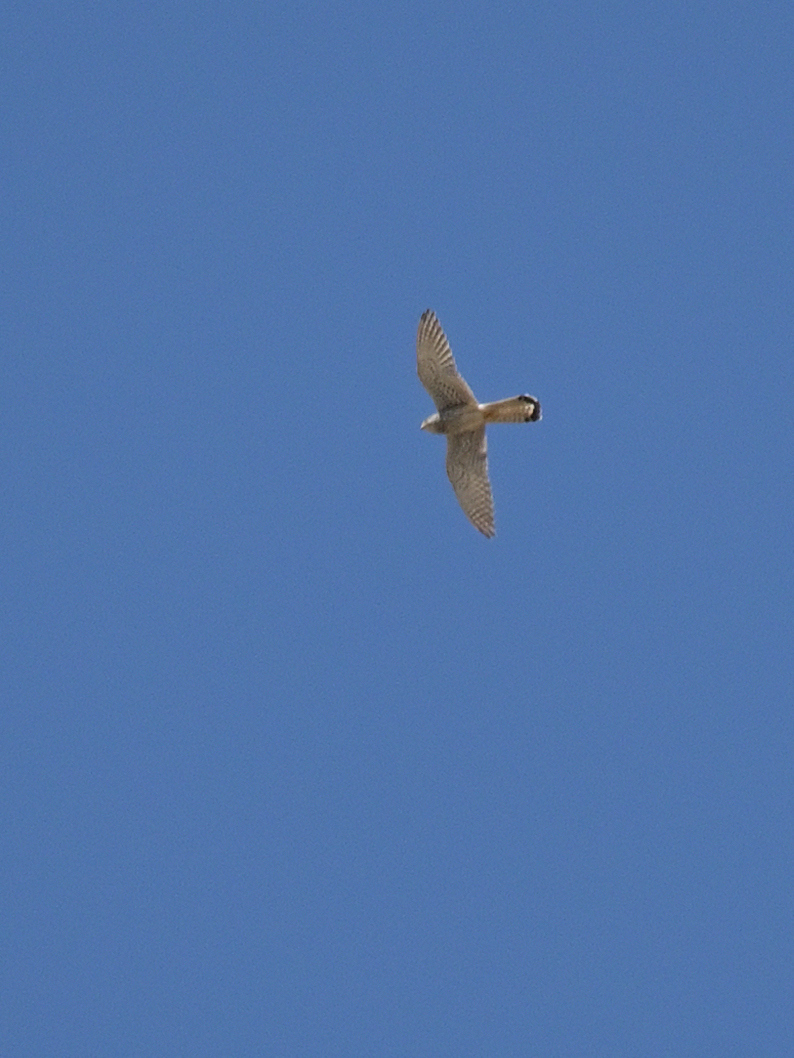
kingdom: Animalia
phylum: Chordata
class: Aves
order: Falconiformes
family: Falconidae
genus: Falco
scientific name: Falco tinnunculus
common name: Common kestrel
